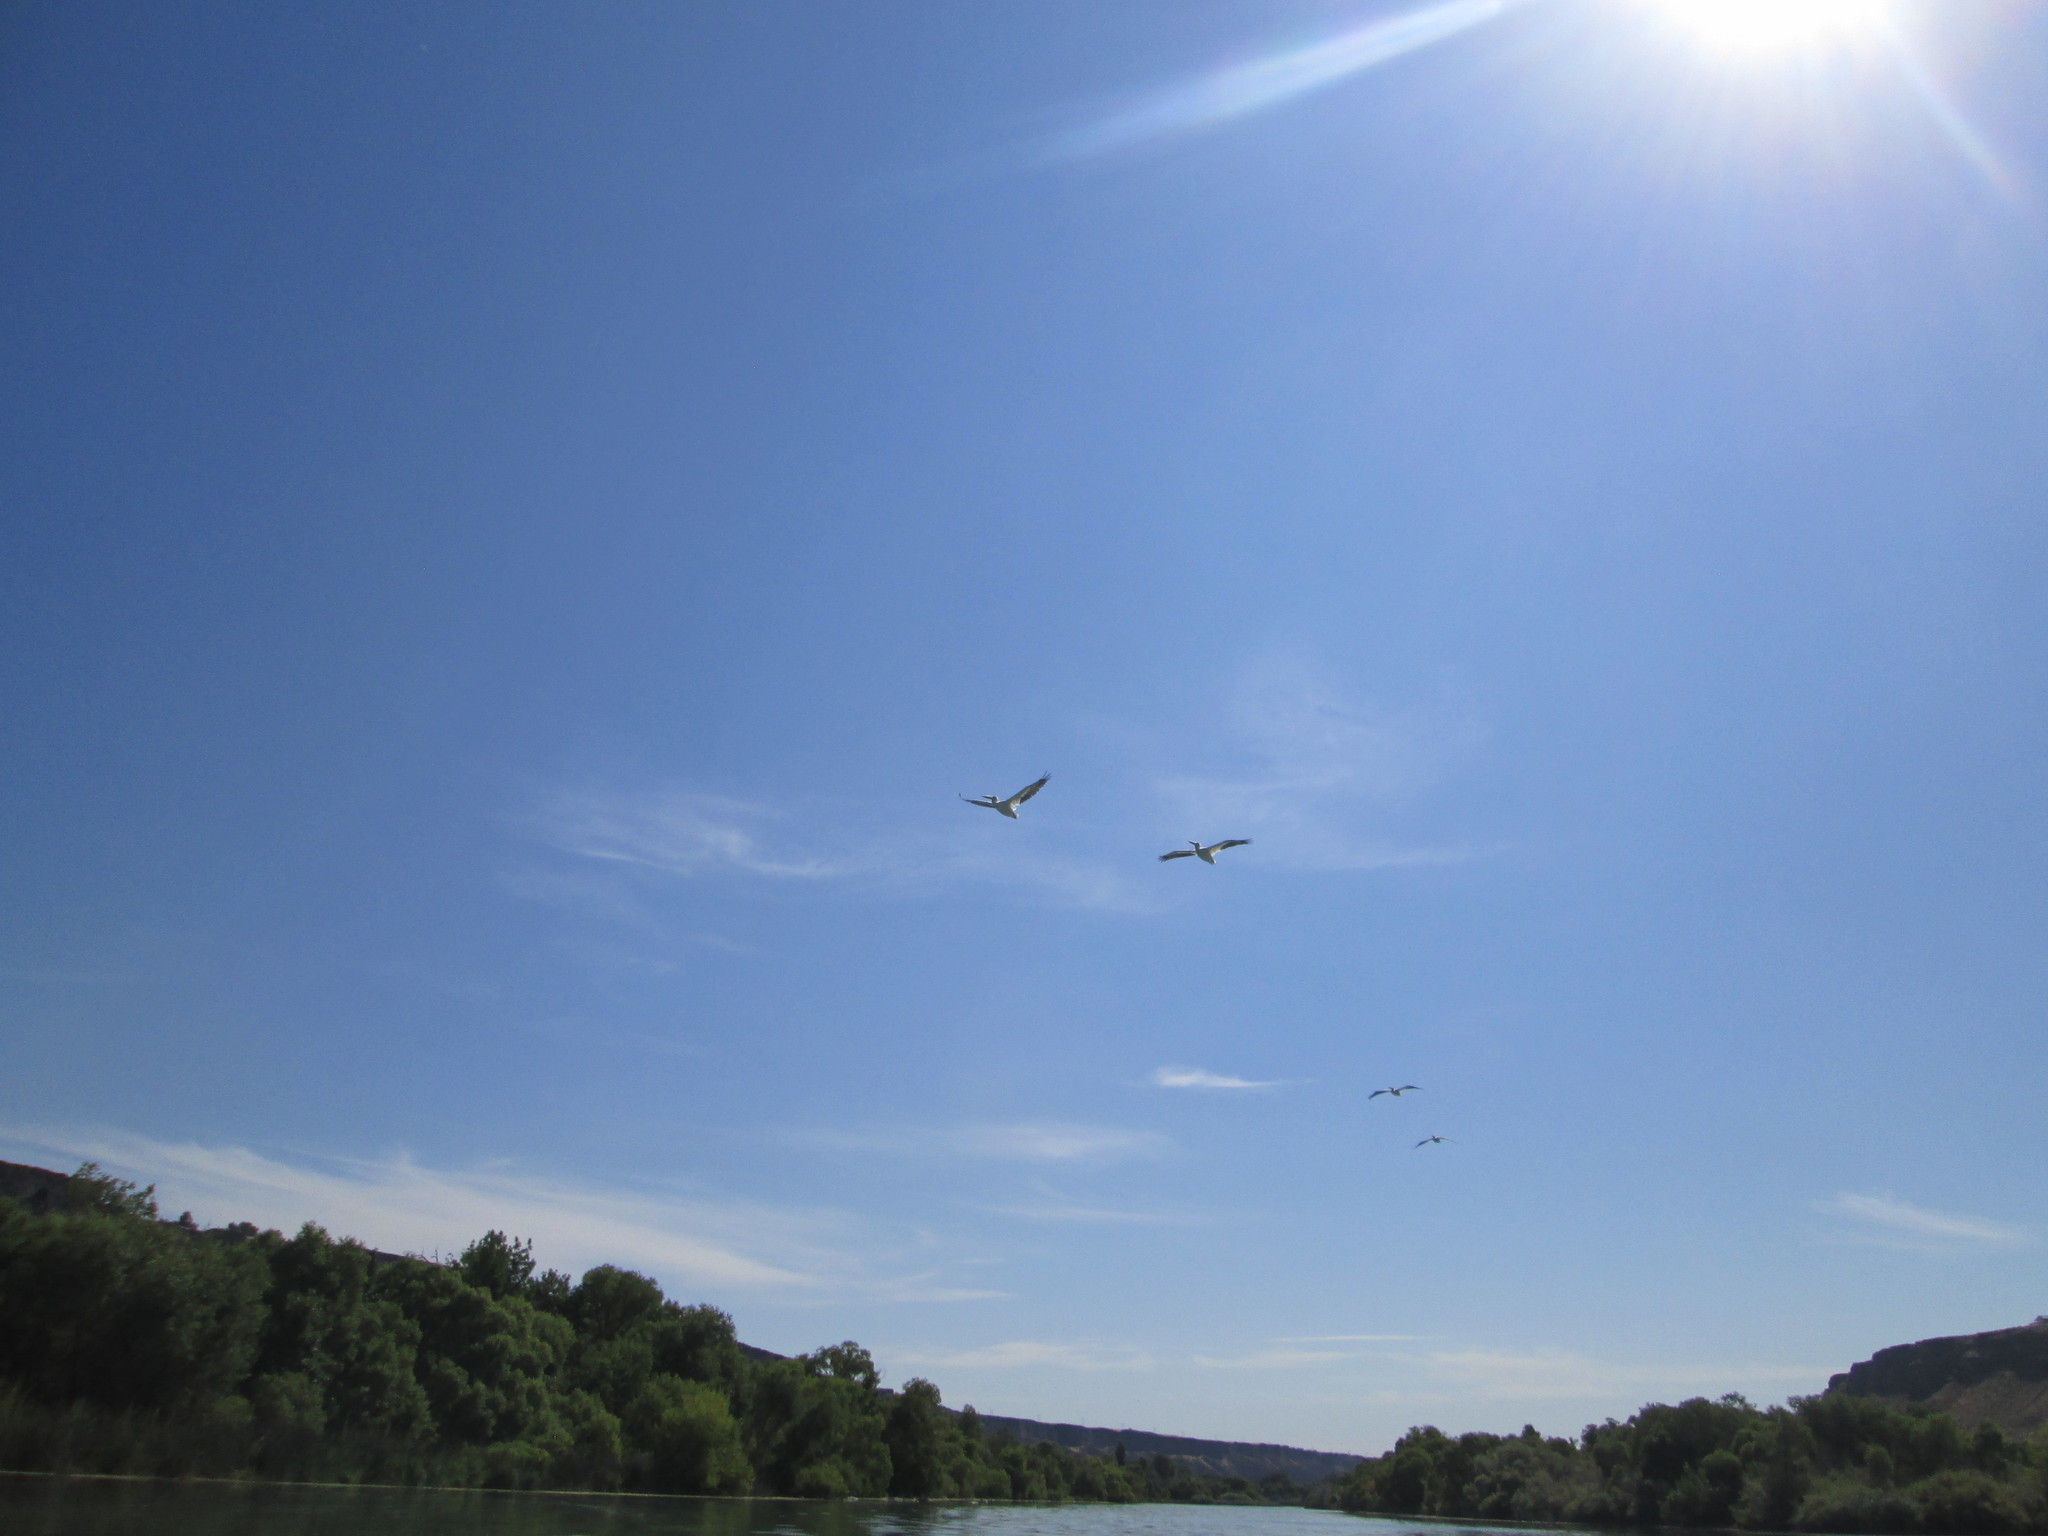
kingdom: Animalia
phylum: Chordata
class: Aves
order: Pelecaniformes
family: Pelecanidae
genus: Pelecanus
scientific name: Pelecanus erythrorhynchos
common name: American white pelican
